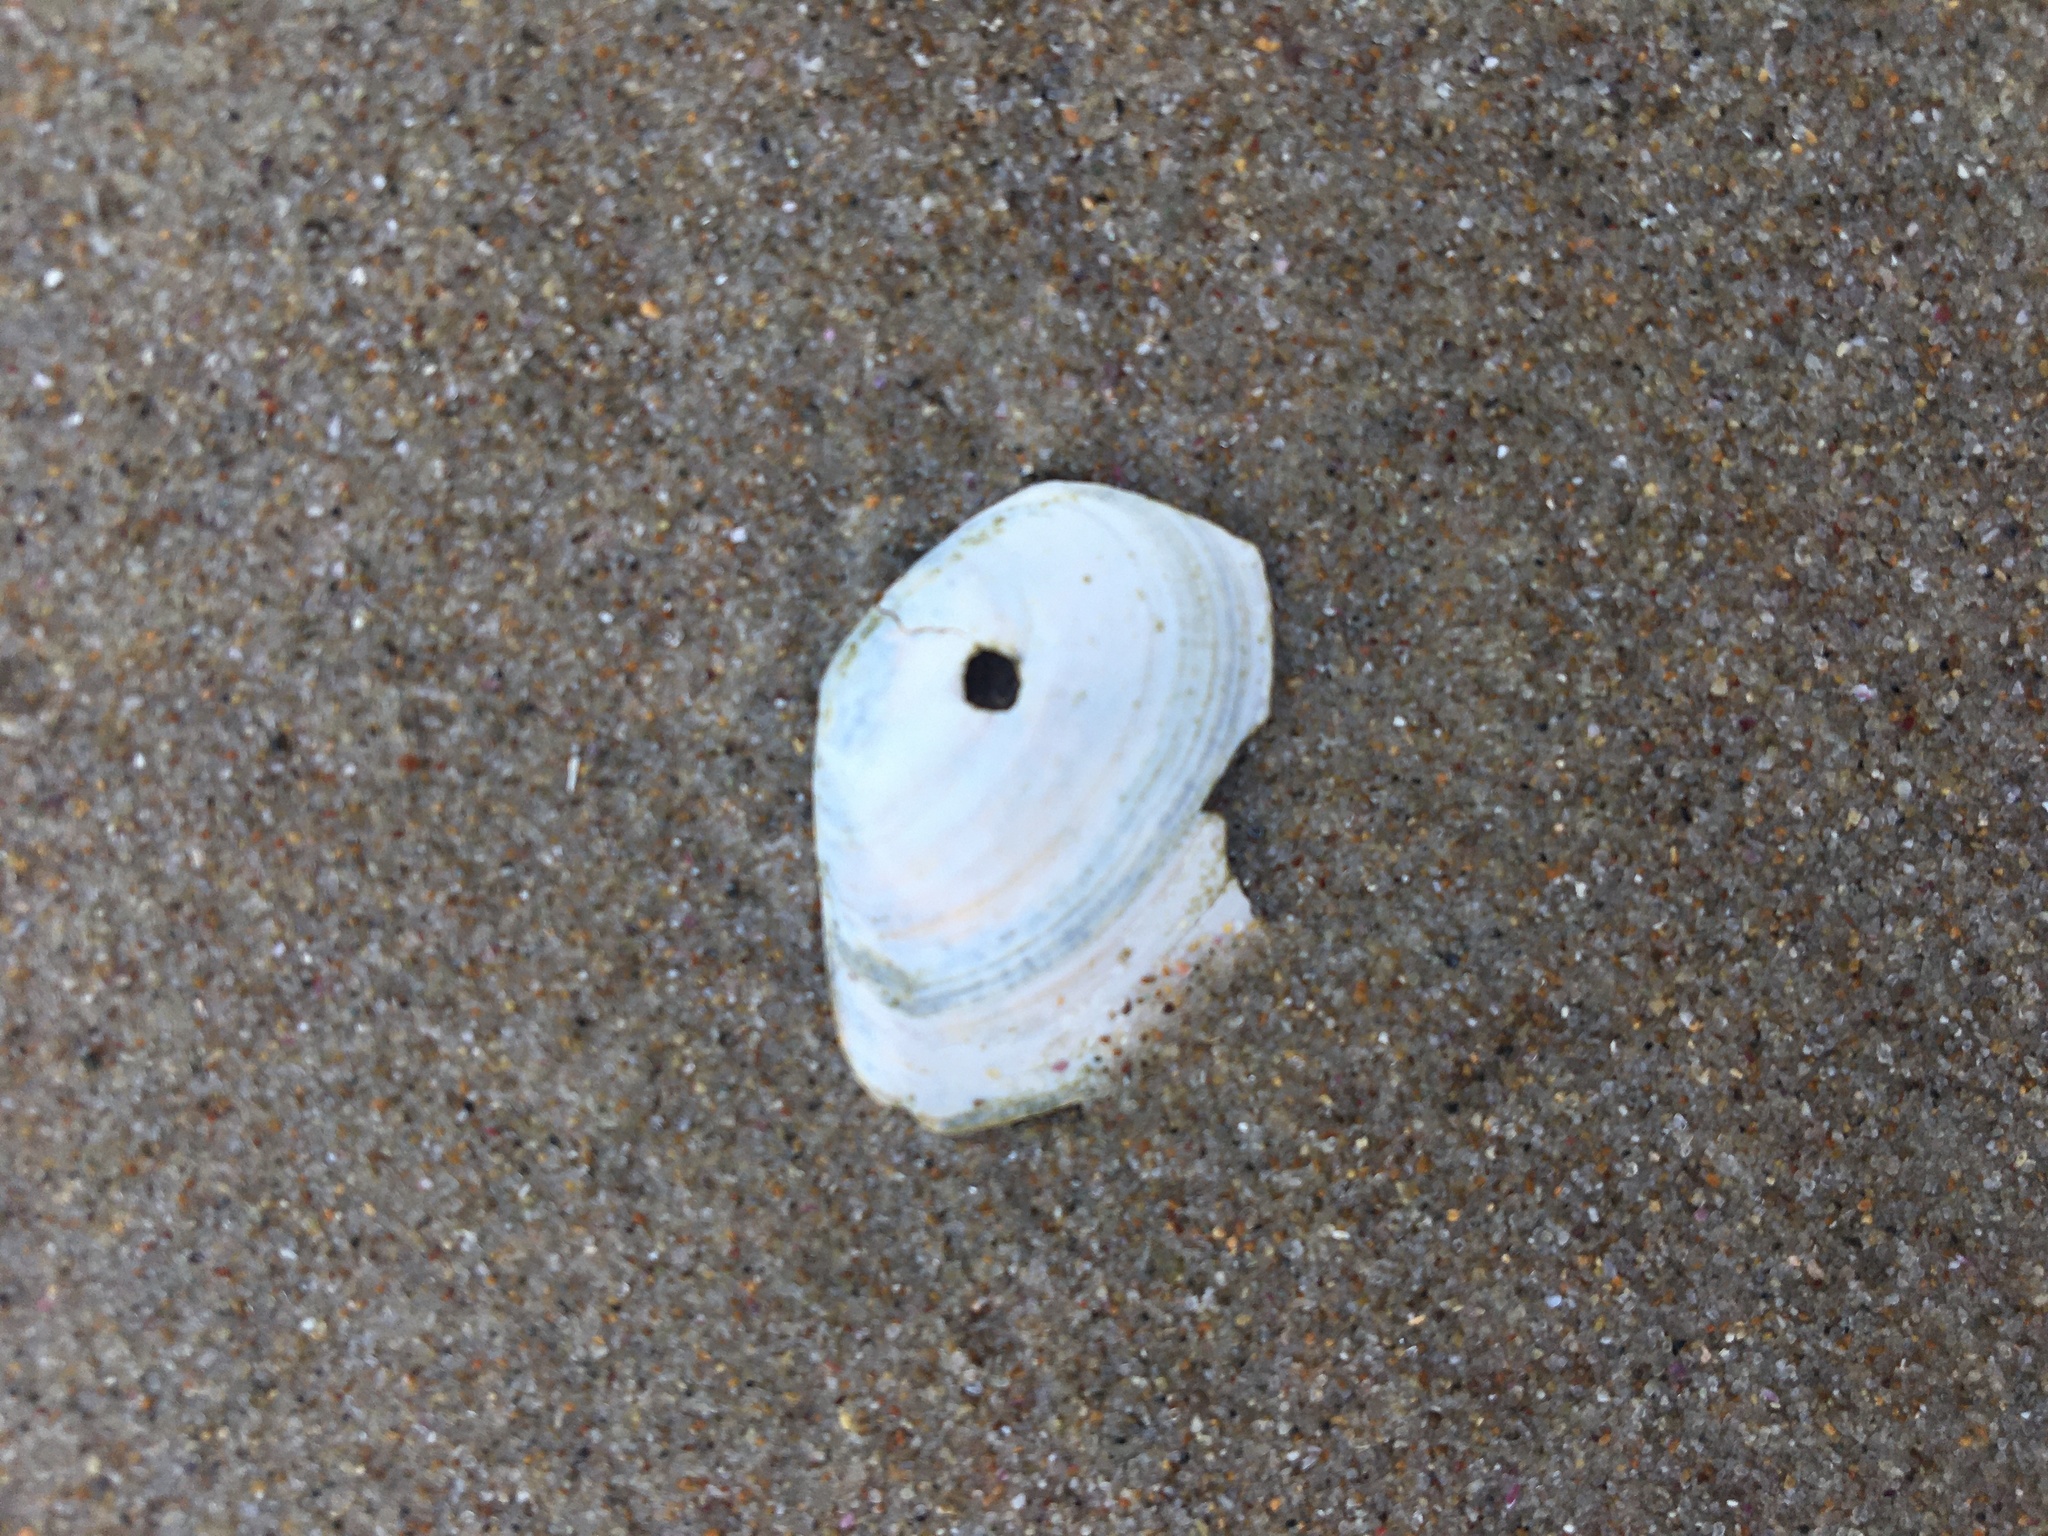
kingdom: Animalia
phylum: Mollusca
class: Bivalvia
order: Cardiida
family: Tellinidae
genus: Macomona
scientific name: Macomona deltoidalis
